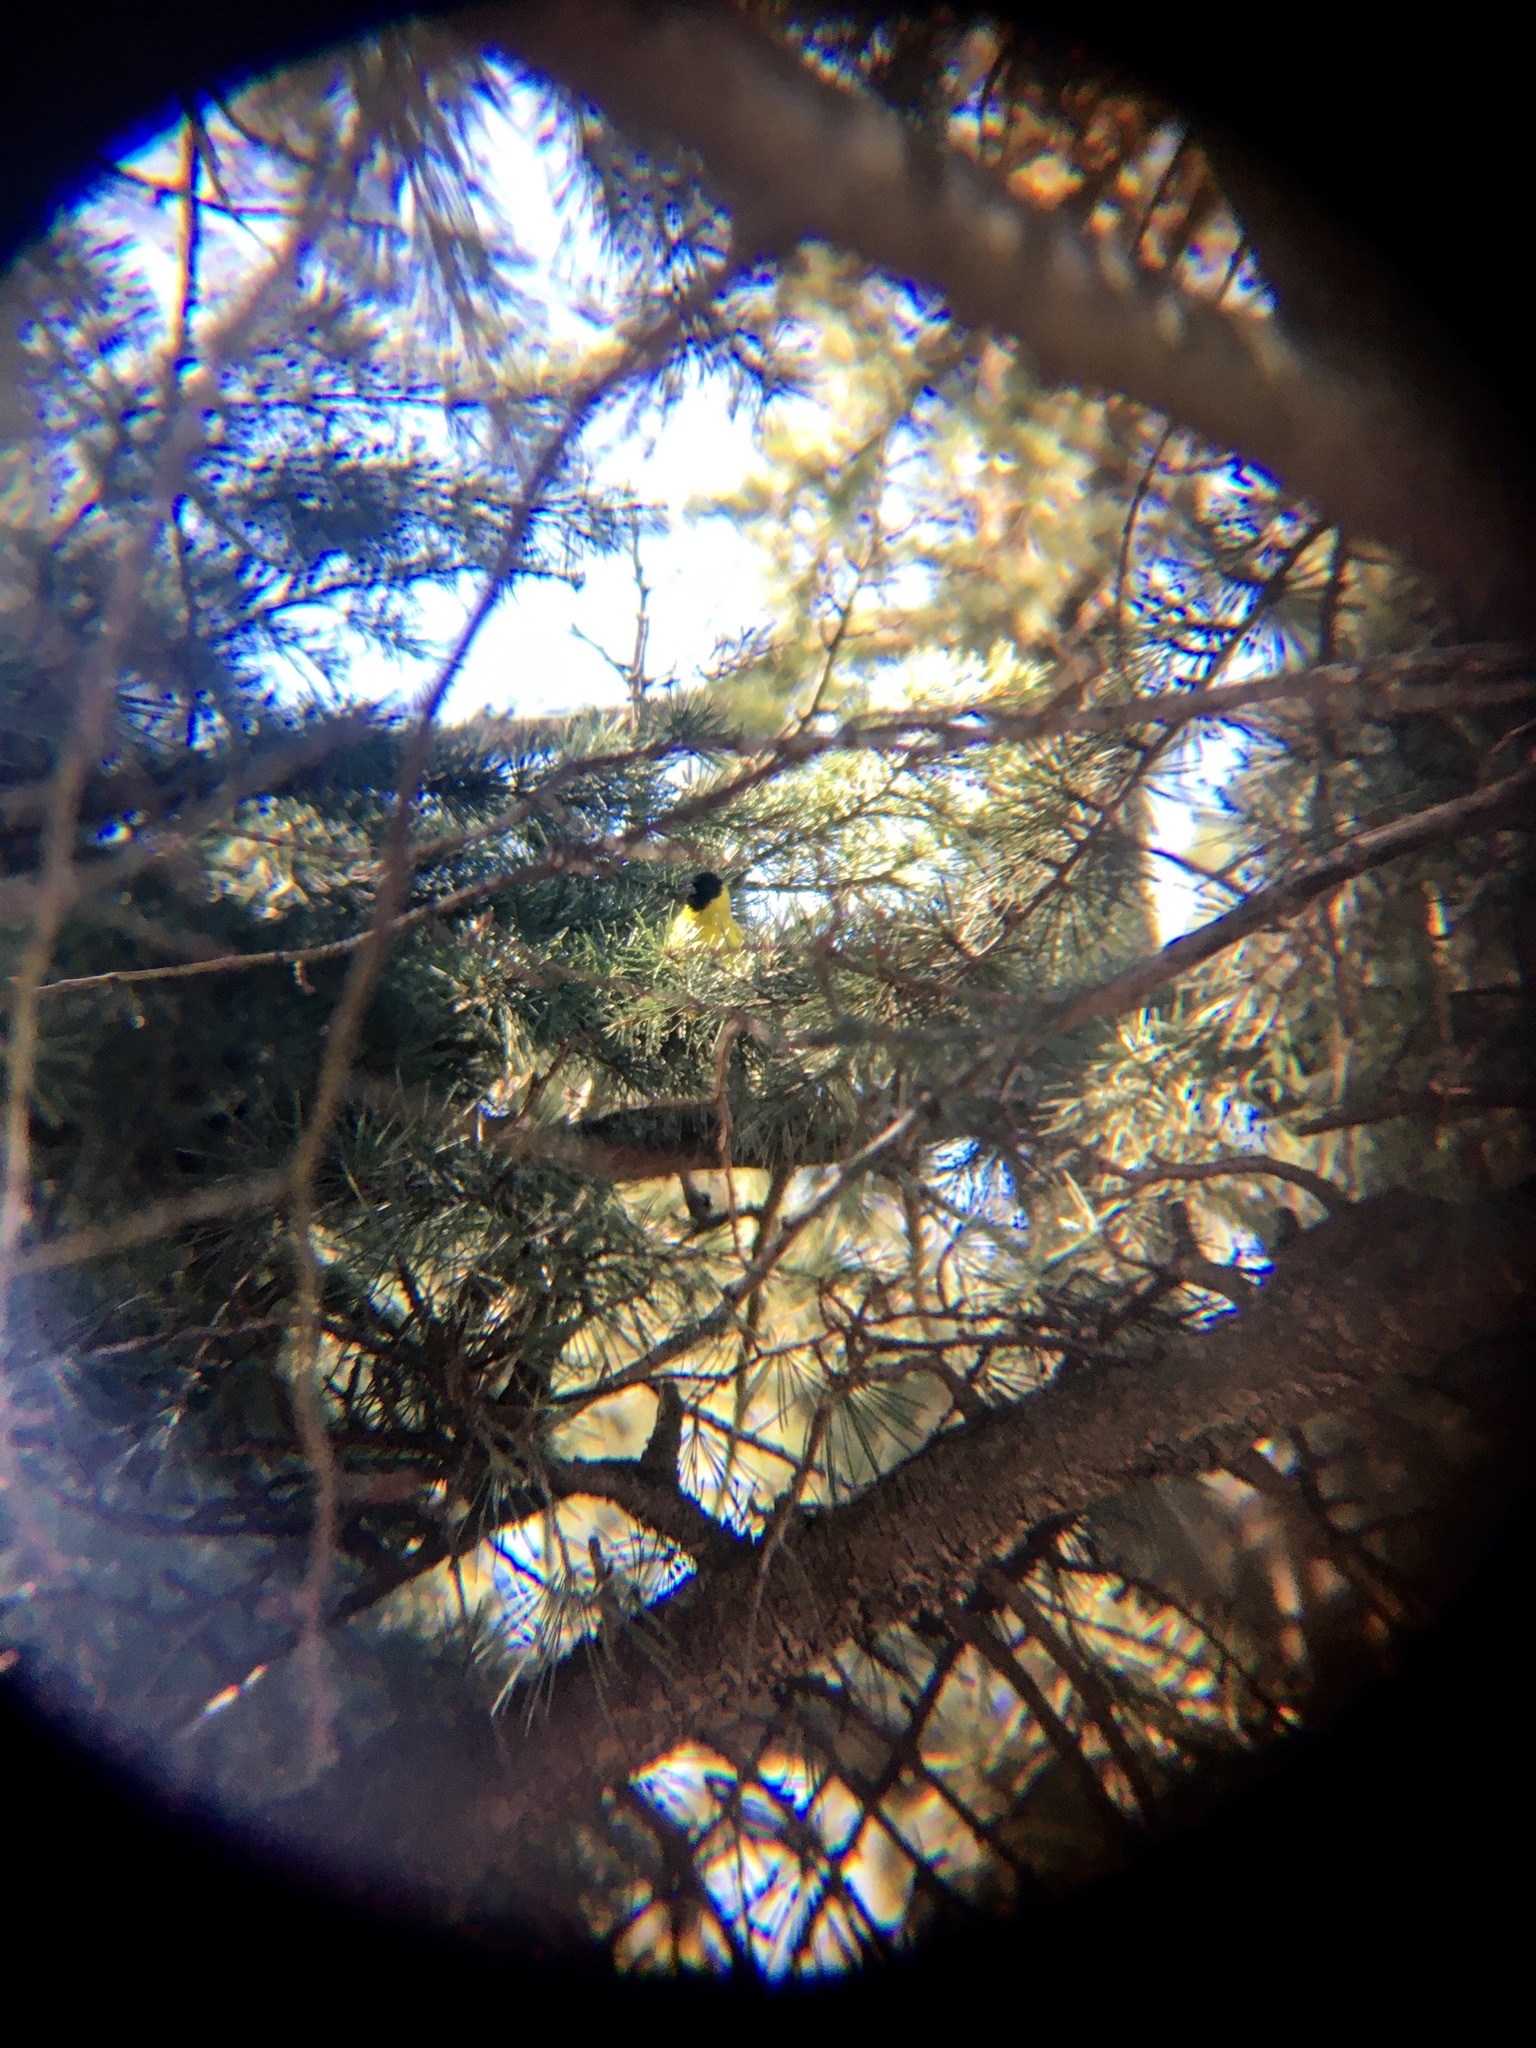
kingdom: Animalia
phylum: Chordata
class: Aves
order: Passeriformes
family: Fringillidae
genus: Spinus
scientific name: Spinus magellanicus
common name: Hooded siskin
